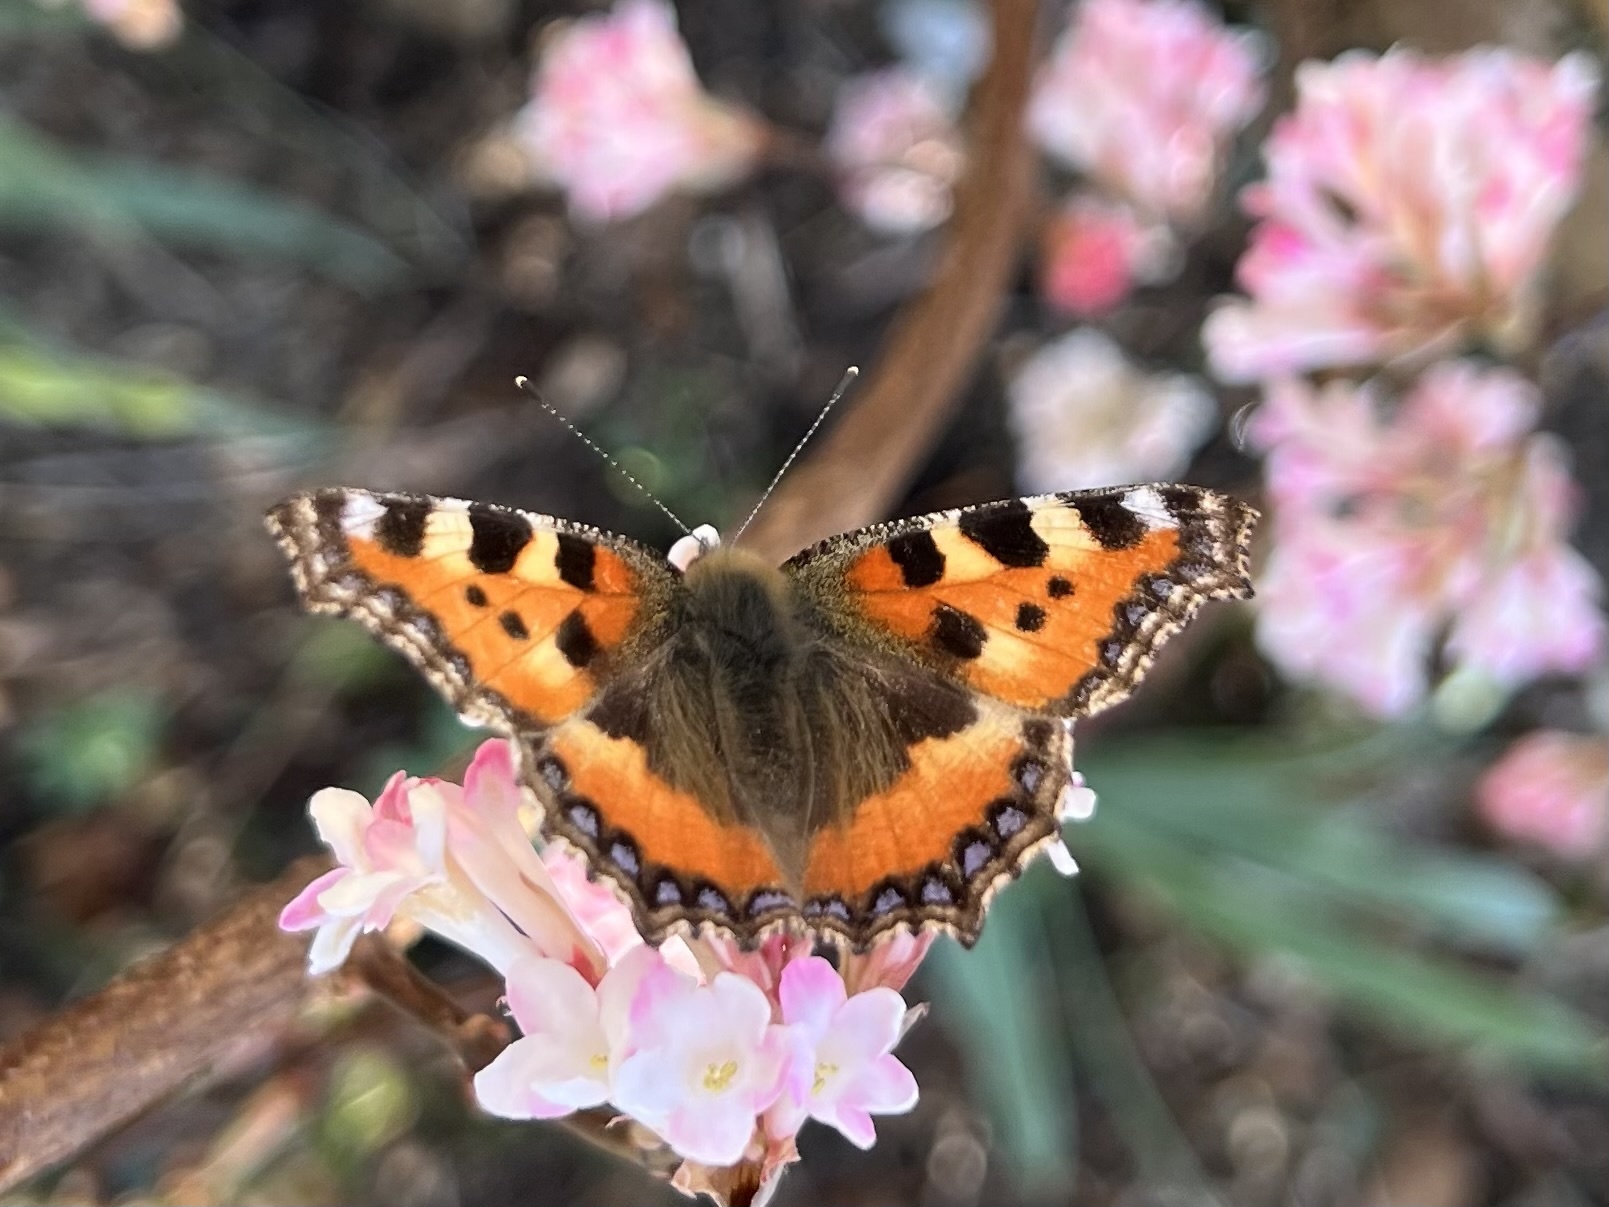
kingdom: Animalia
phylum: Arthropoda
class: Insecta
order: Lepidoptera
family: Nymphalidae
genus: Aglais
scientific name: Aglais urticae
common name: Small tortoiseshell
